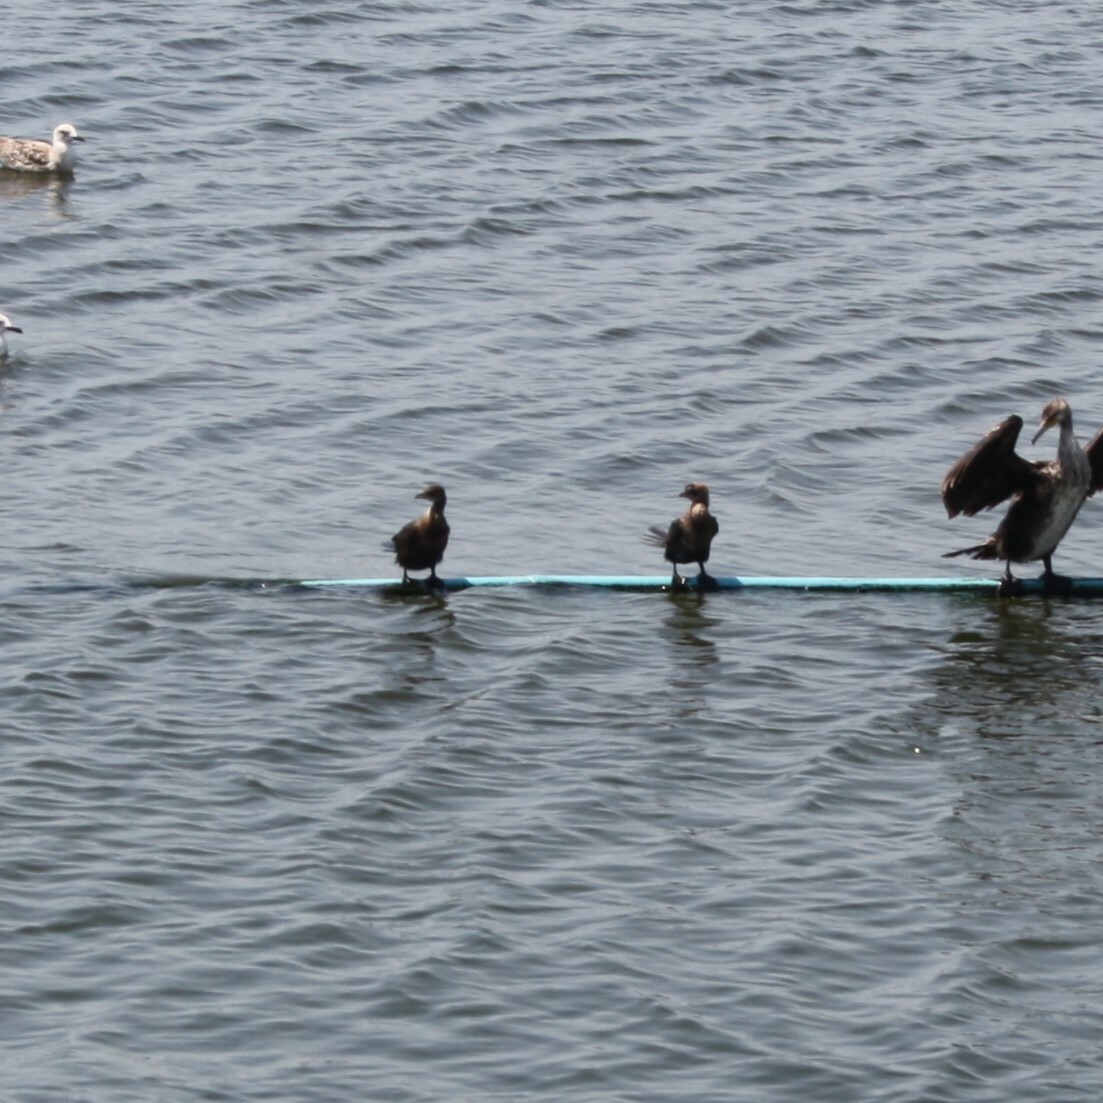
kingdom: Animalia
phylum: Chordata
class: Aves
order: Suliformes
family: Phalacrocoracidae
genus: Microcarbo
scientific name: Microcarbo pygmaeus
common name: Pygmy cormorant
